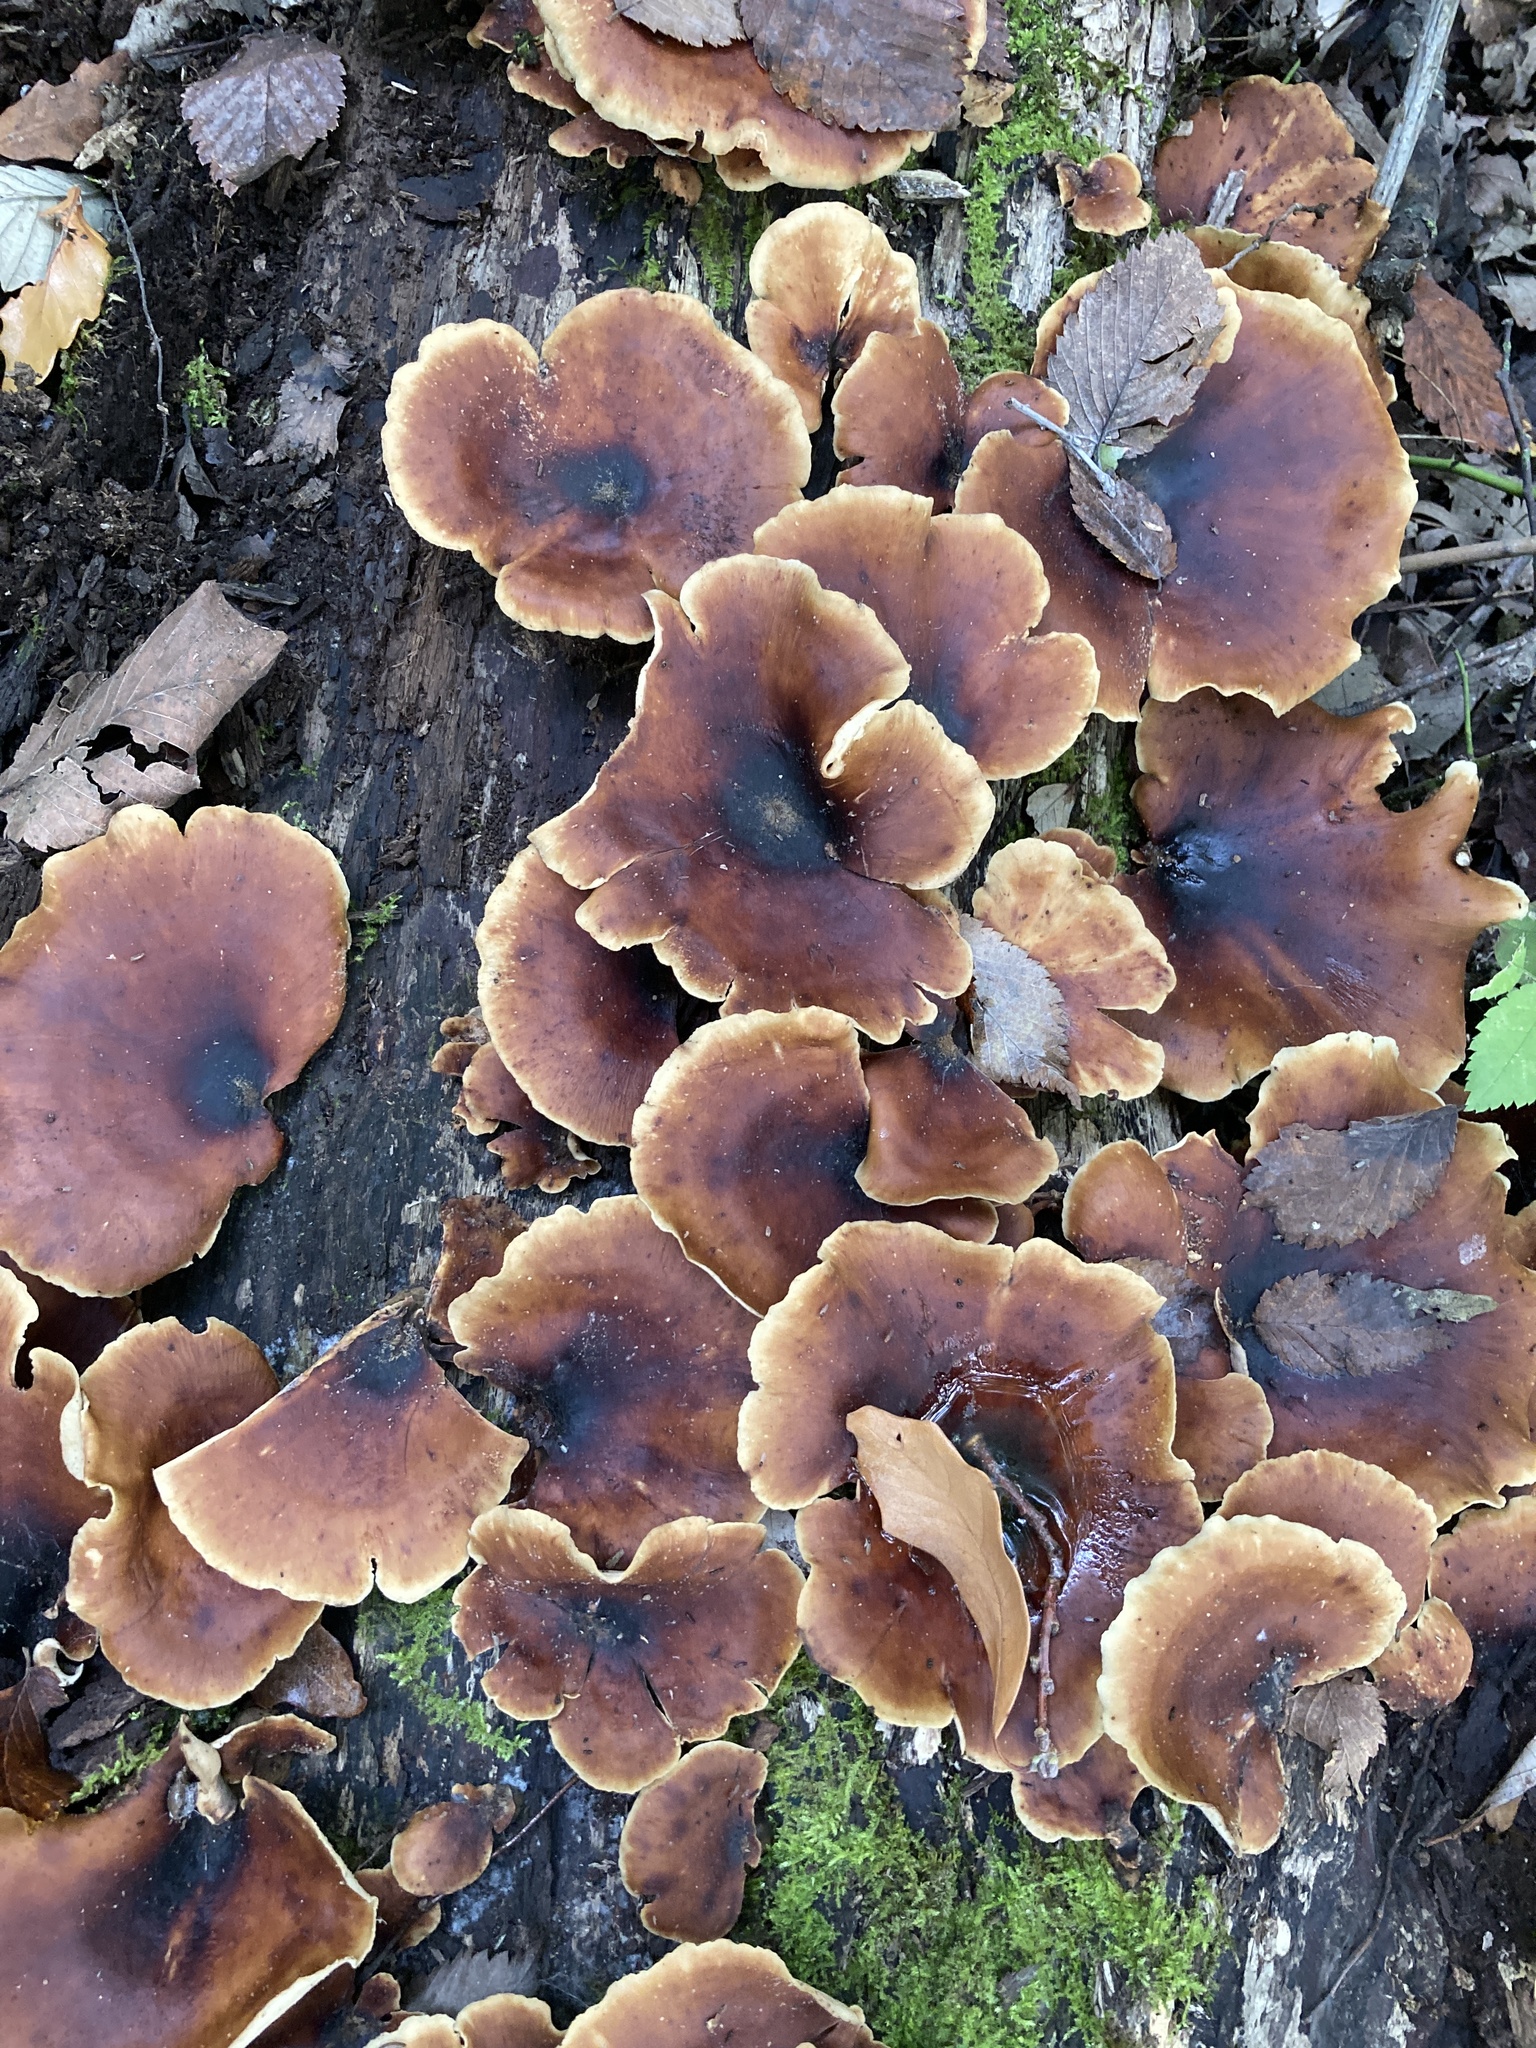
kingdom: Fungi
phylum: Basidiomycota
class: Agaricomycetes
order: Polyporales
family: Polyporaceae
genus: Picipes
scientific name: Picipes badius
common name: Bay polypore
